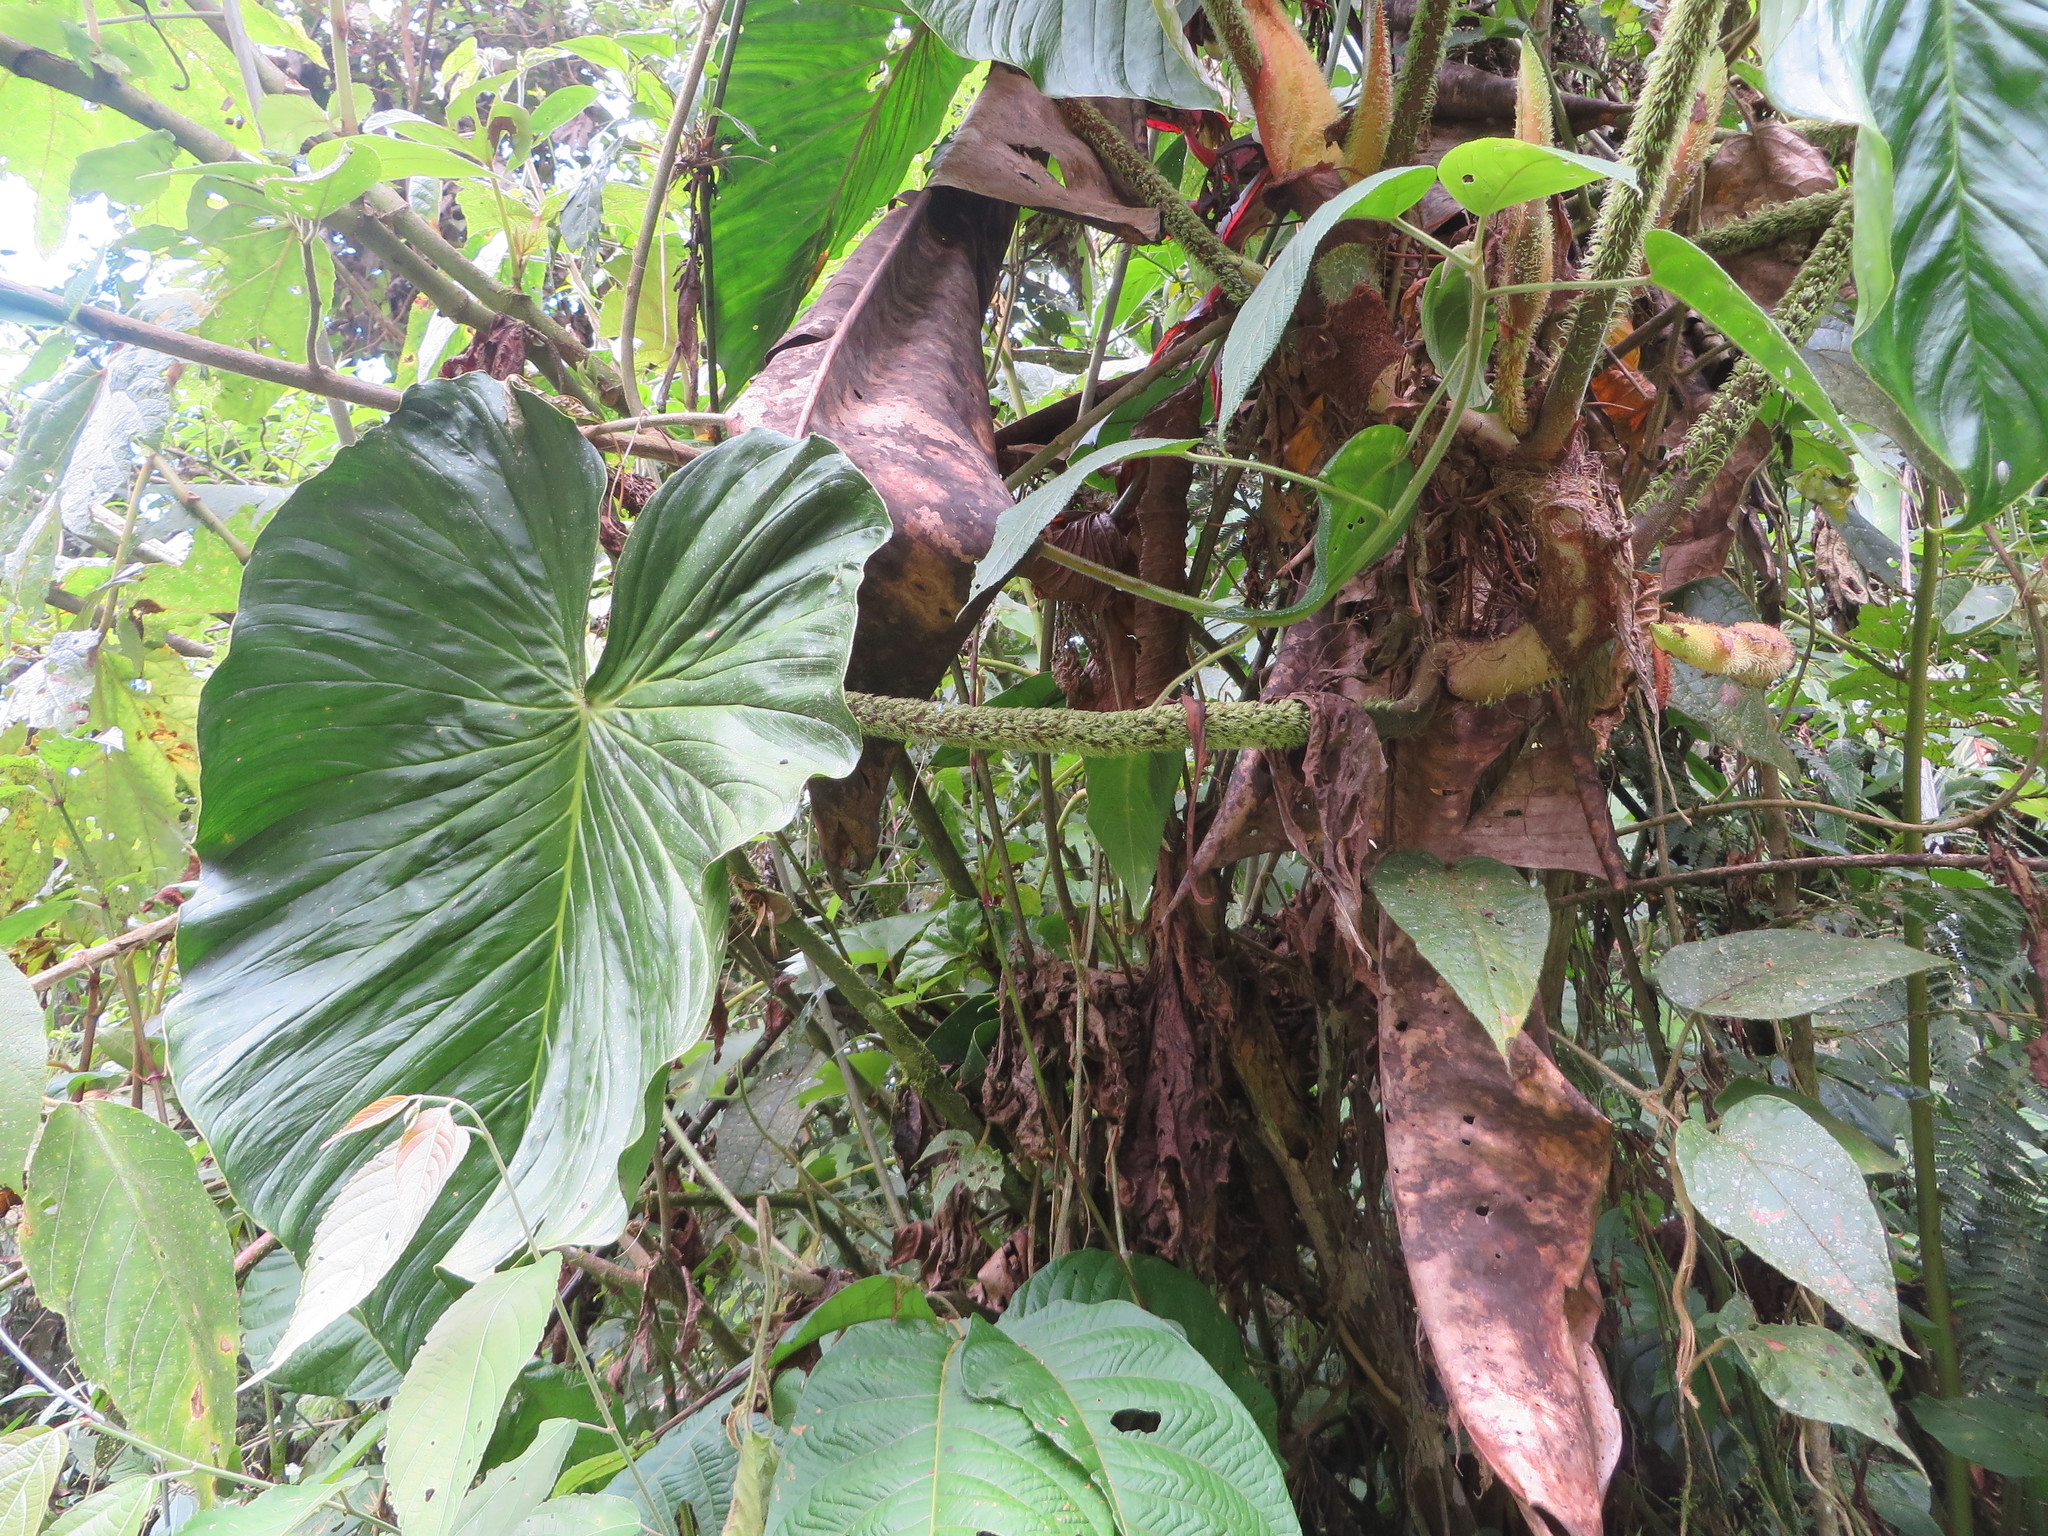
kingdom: Plantae
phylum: Tracheophyta
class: Liliopsida
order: Alismatales
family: Araceae
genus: Philodendron
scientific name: Philodendron fibrosum
